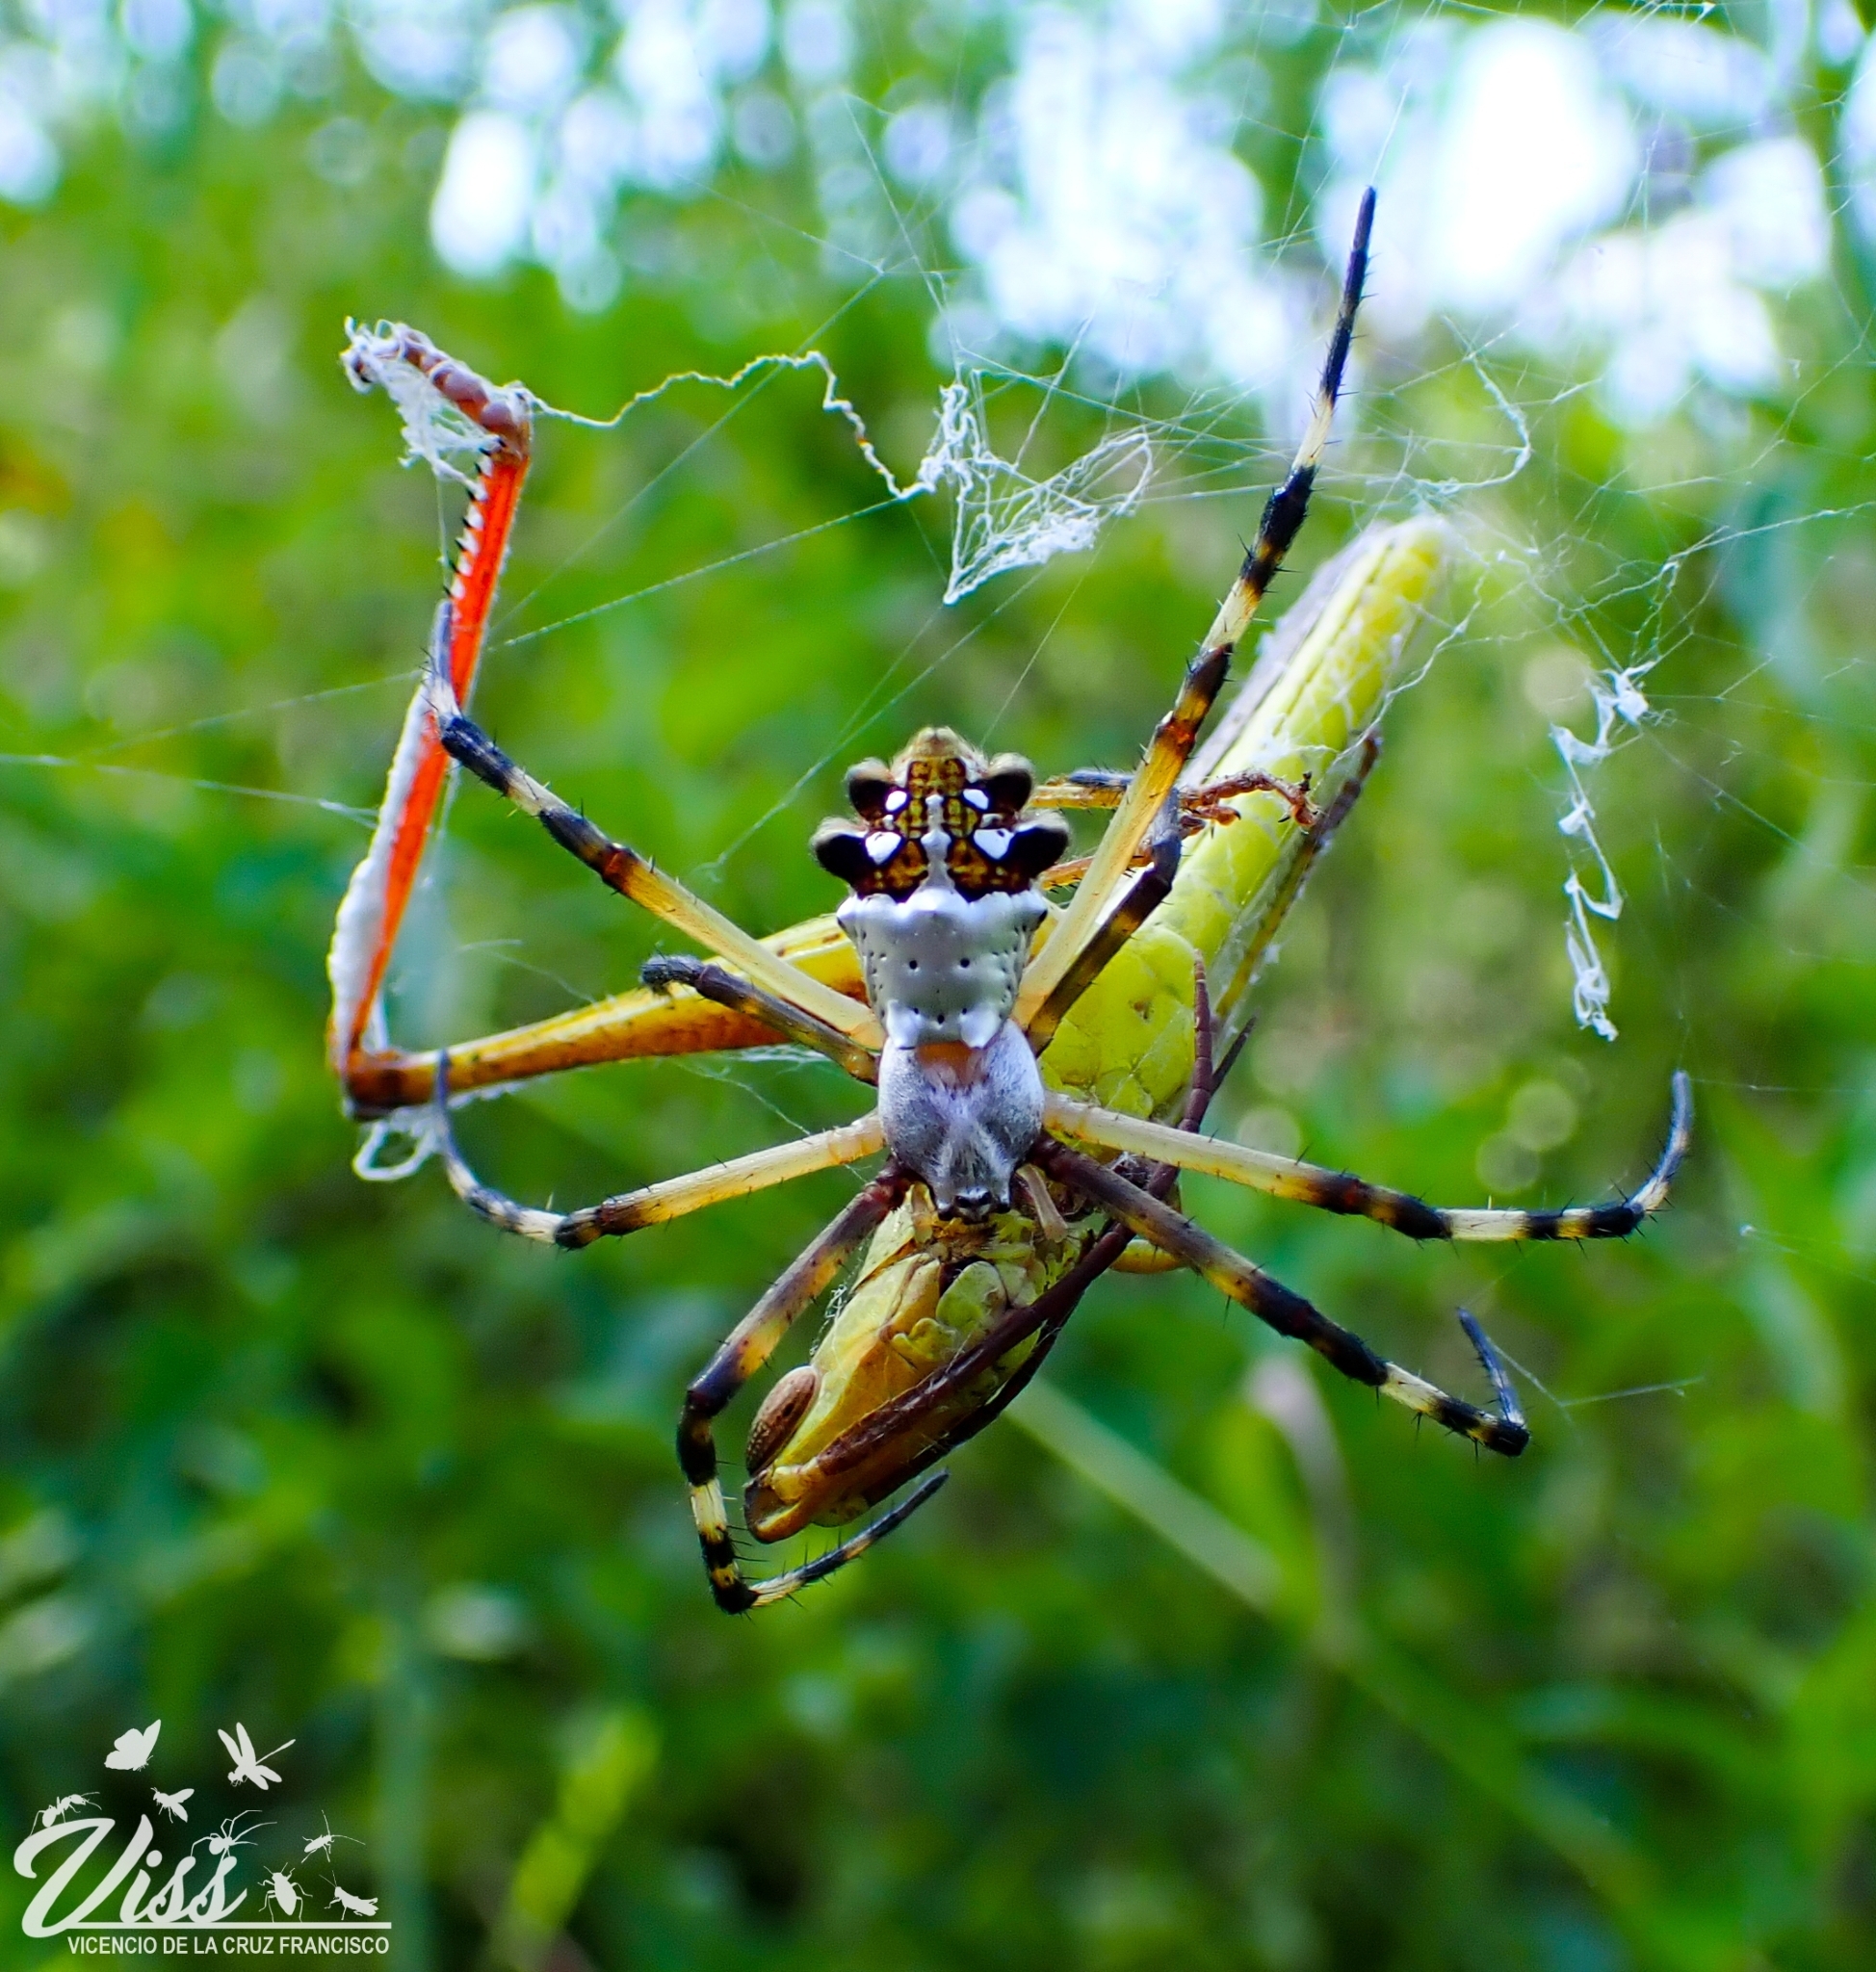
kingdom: Animalia
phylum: Arthropoda
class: Arachnida
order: Araneae
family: Araneidae
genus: Argiope
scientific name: Argiope argentata
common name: Orb weavers
